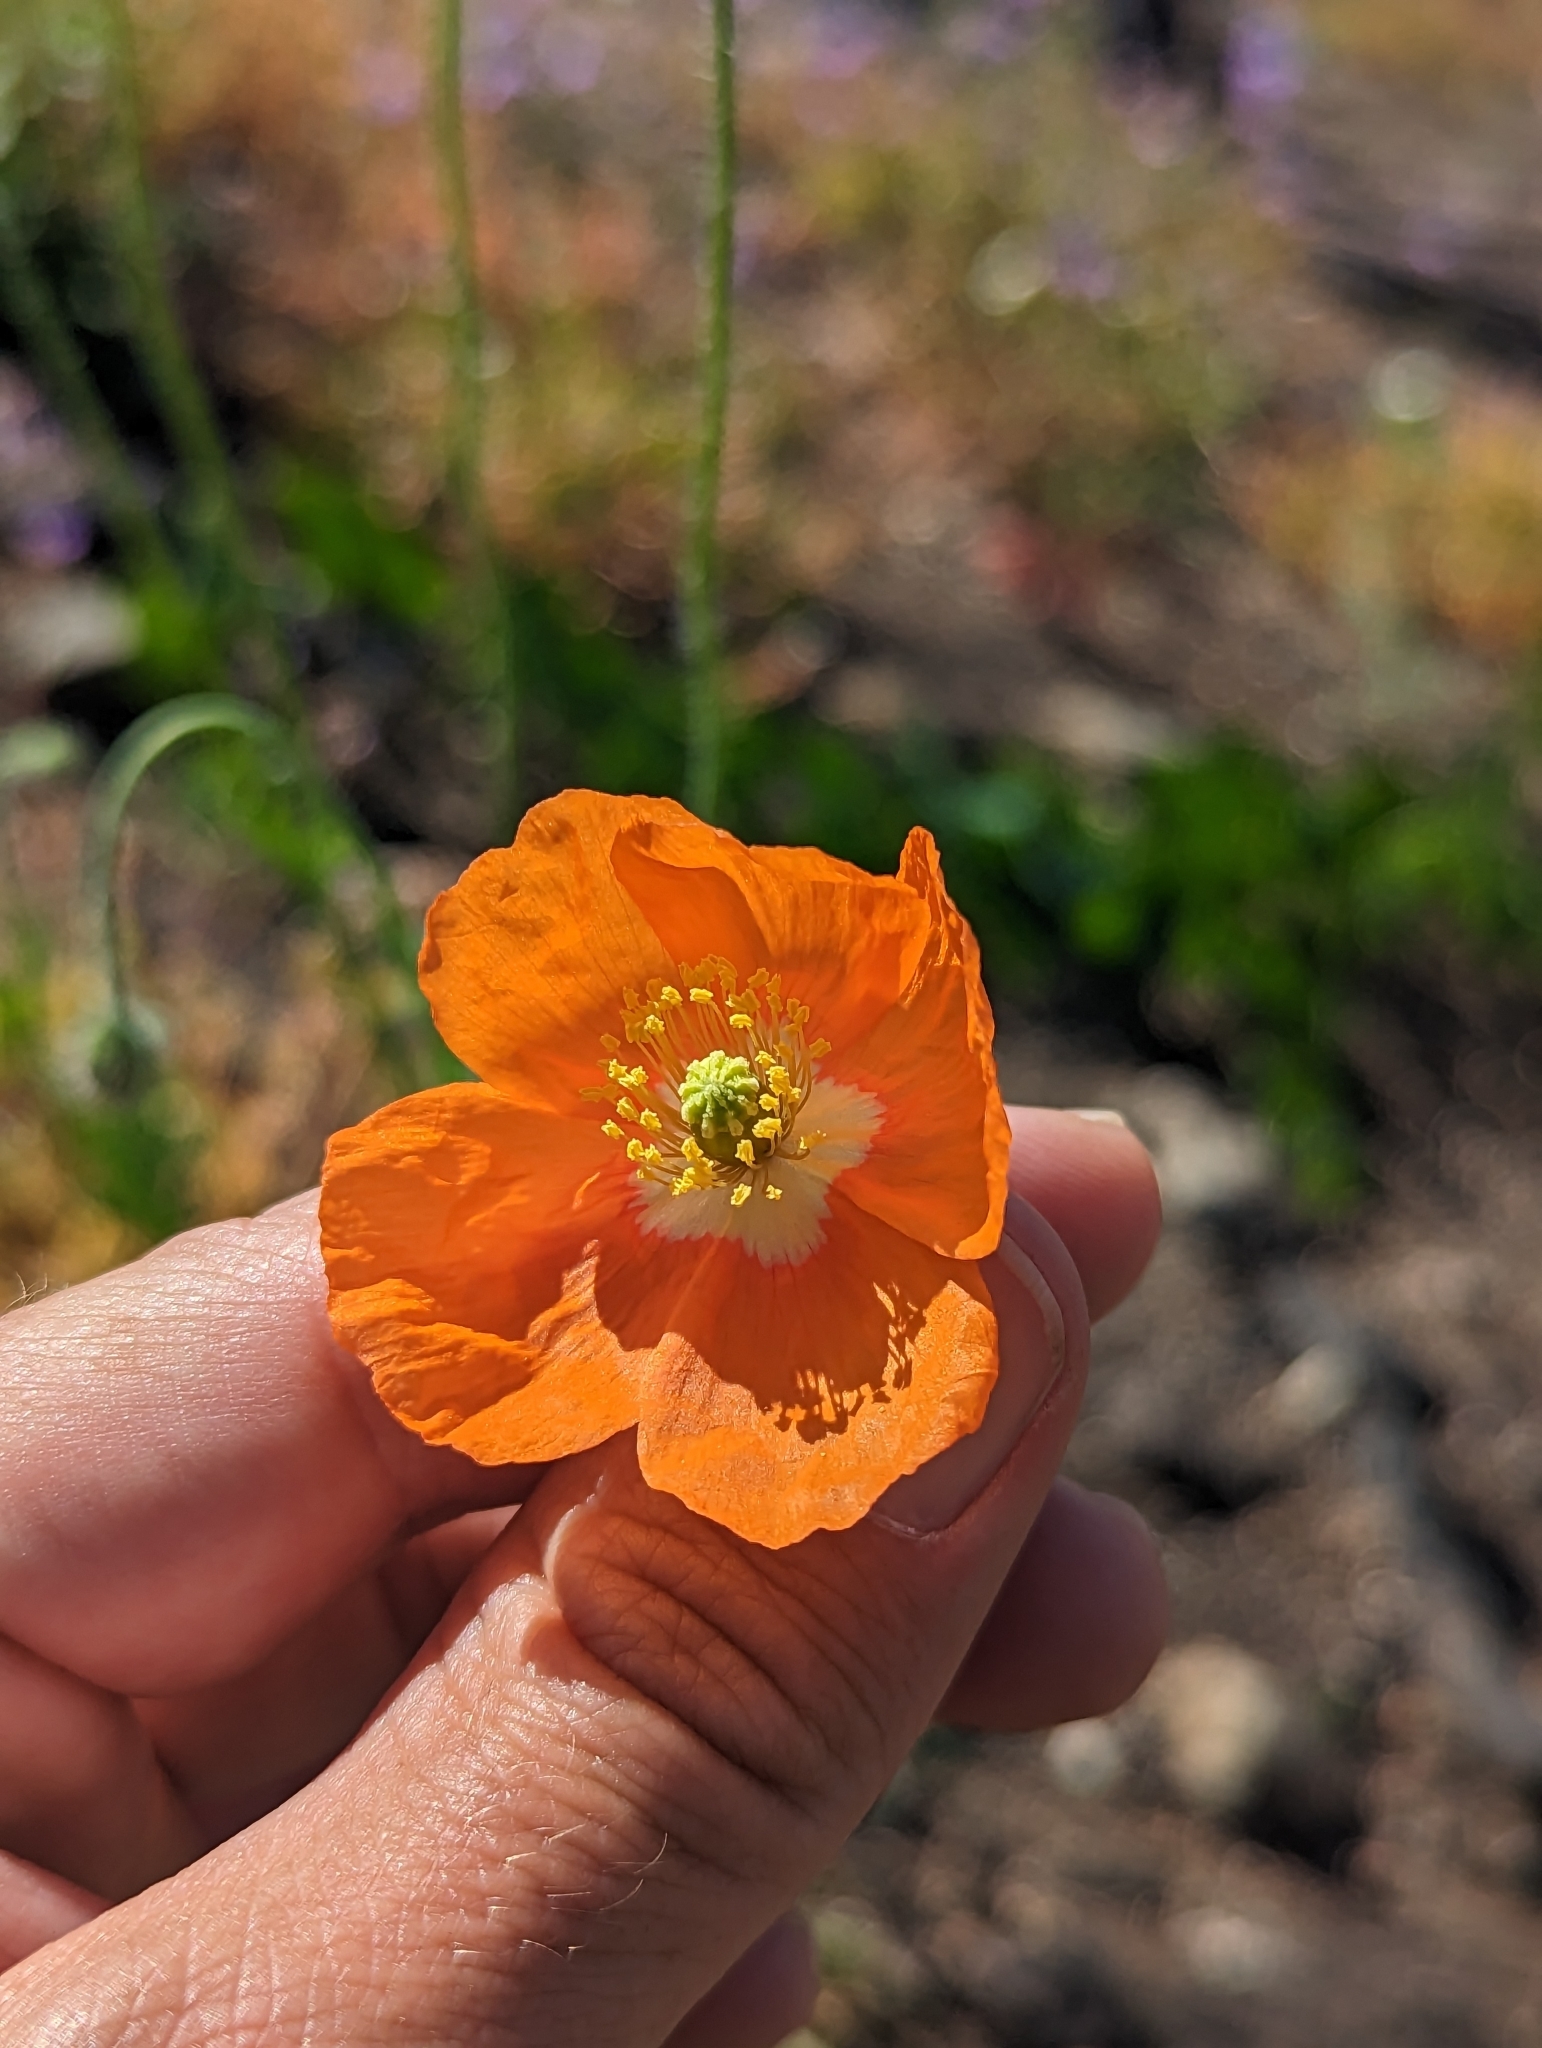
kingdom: Plantae
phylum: Tracheophyta
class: Magnoliopsida
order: Ranunculales
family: Papaveraceae
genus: Papaver
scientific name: Papaver californicum
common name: Fire poppy
